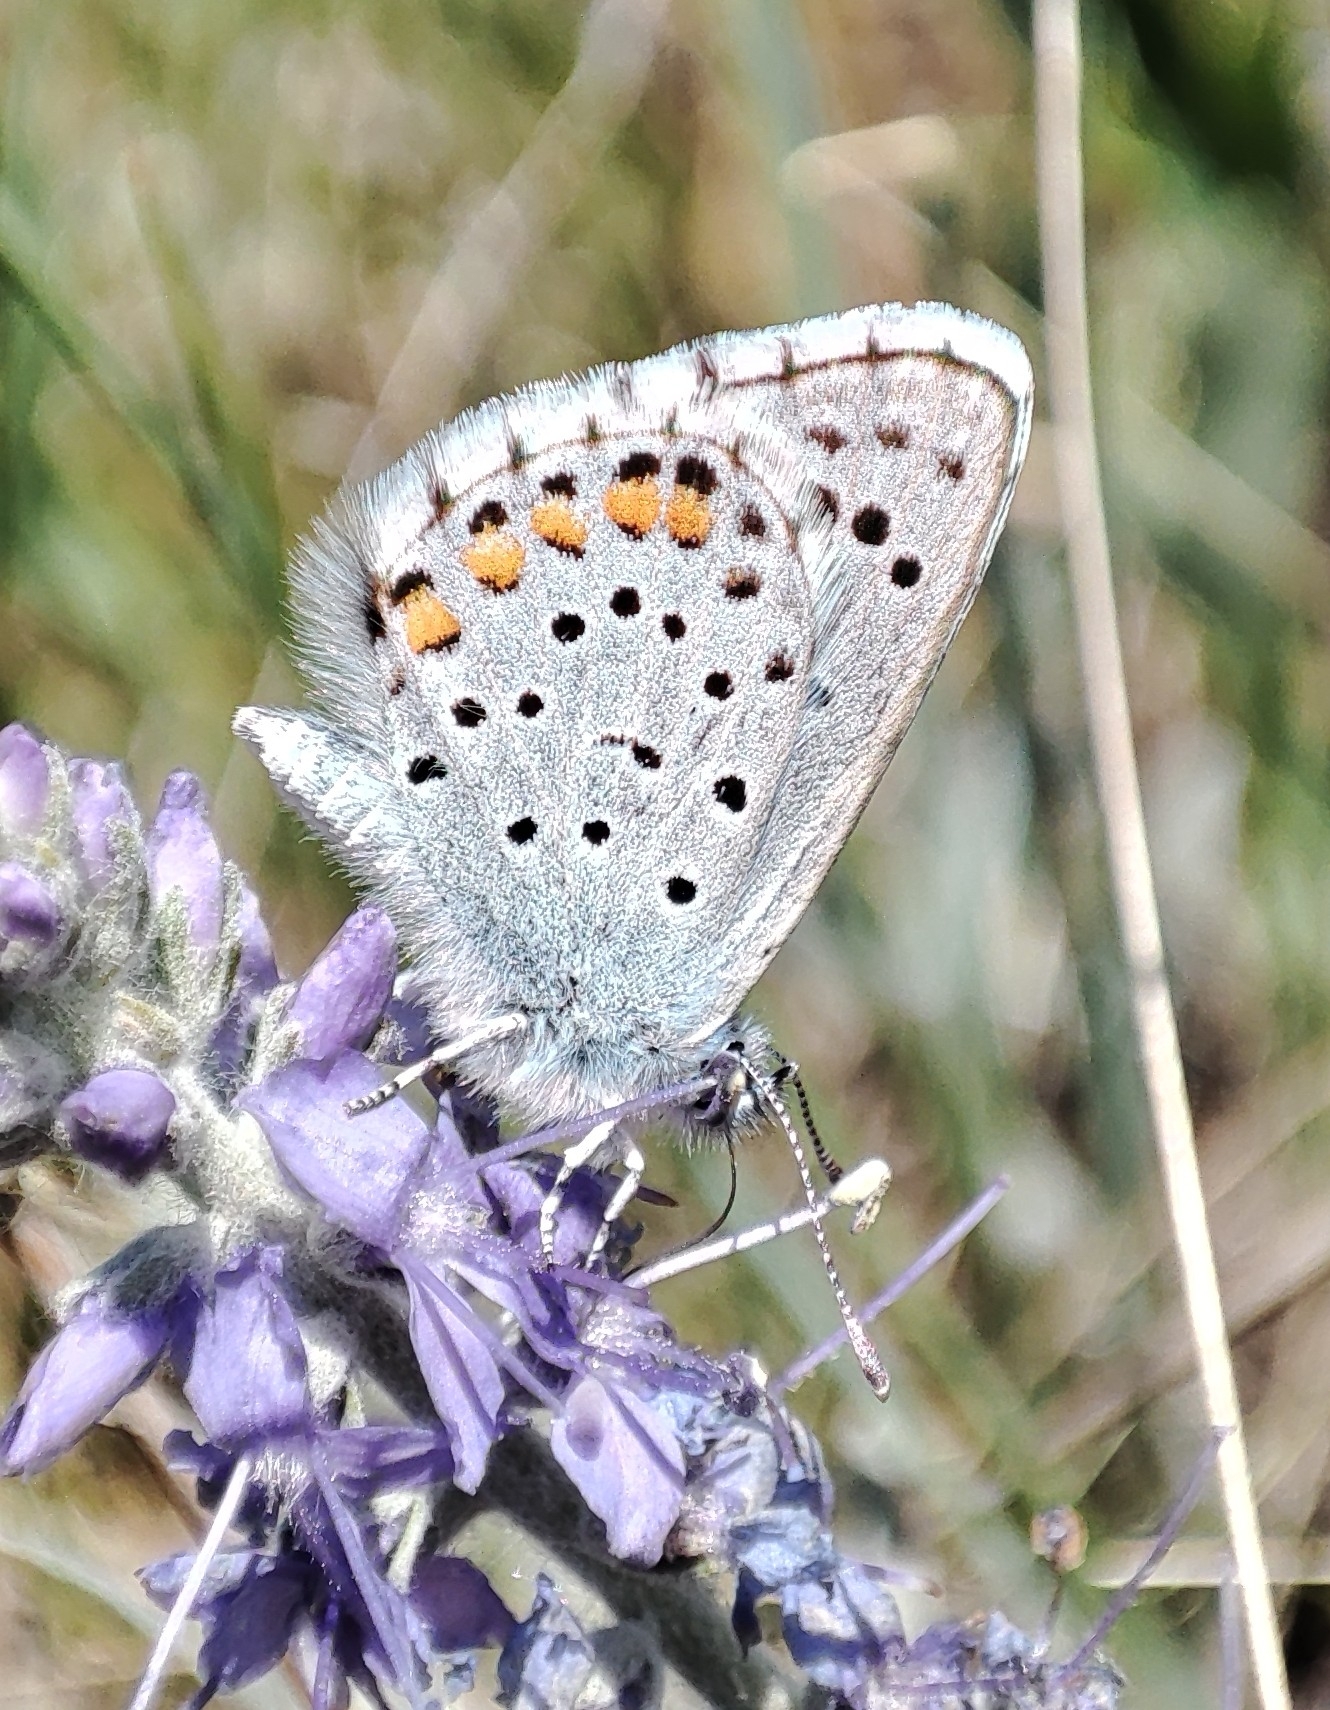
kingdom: Animalia
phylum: Arthropoda
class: Insecta
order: Lepidoptera
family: Lycaenidae
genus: Pseudophilotes
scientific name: Pseudophilotes baton
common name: Baton blue
